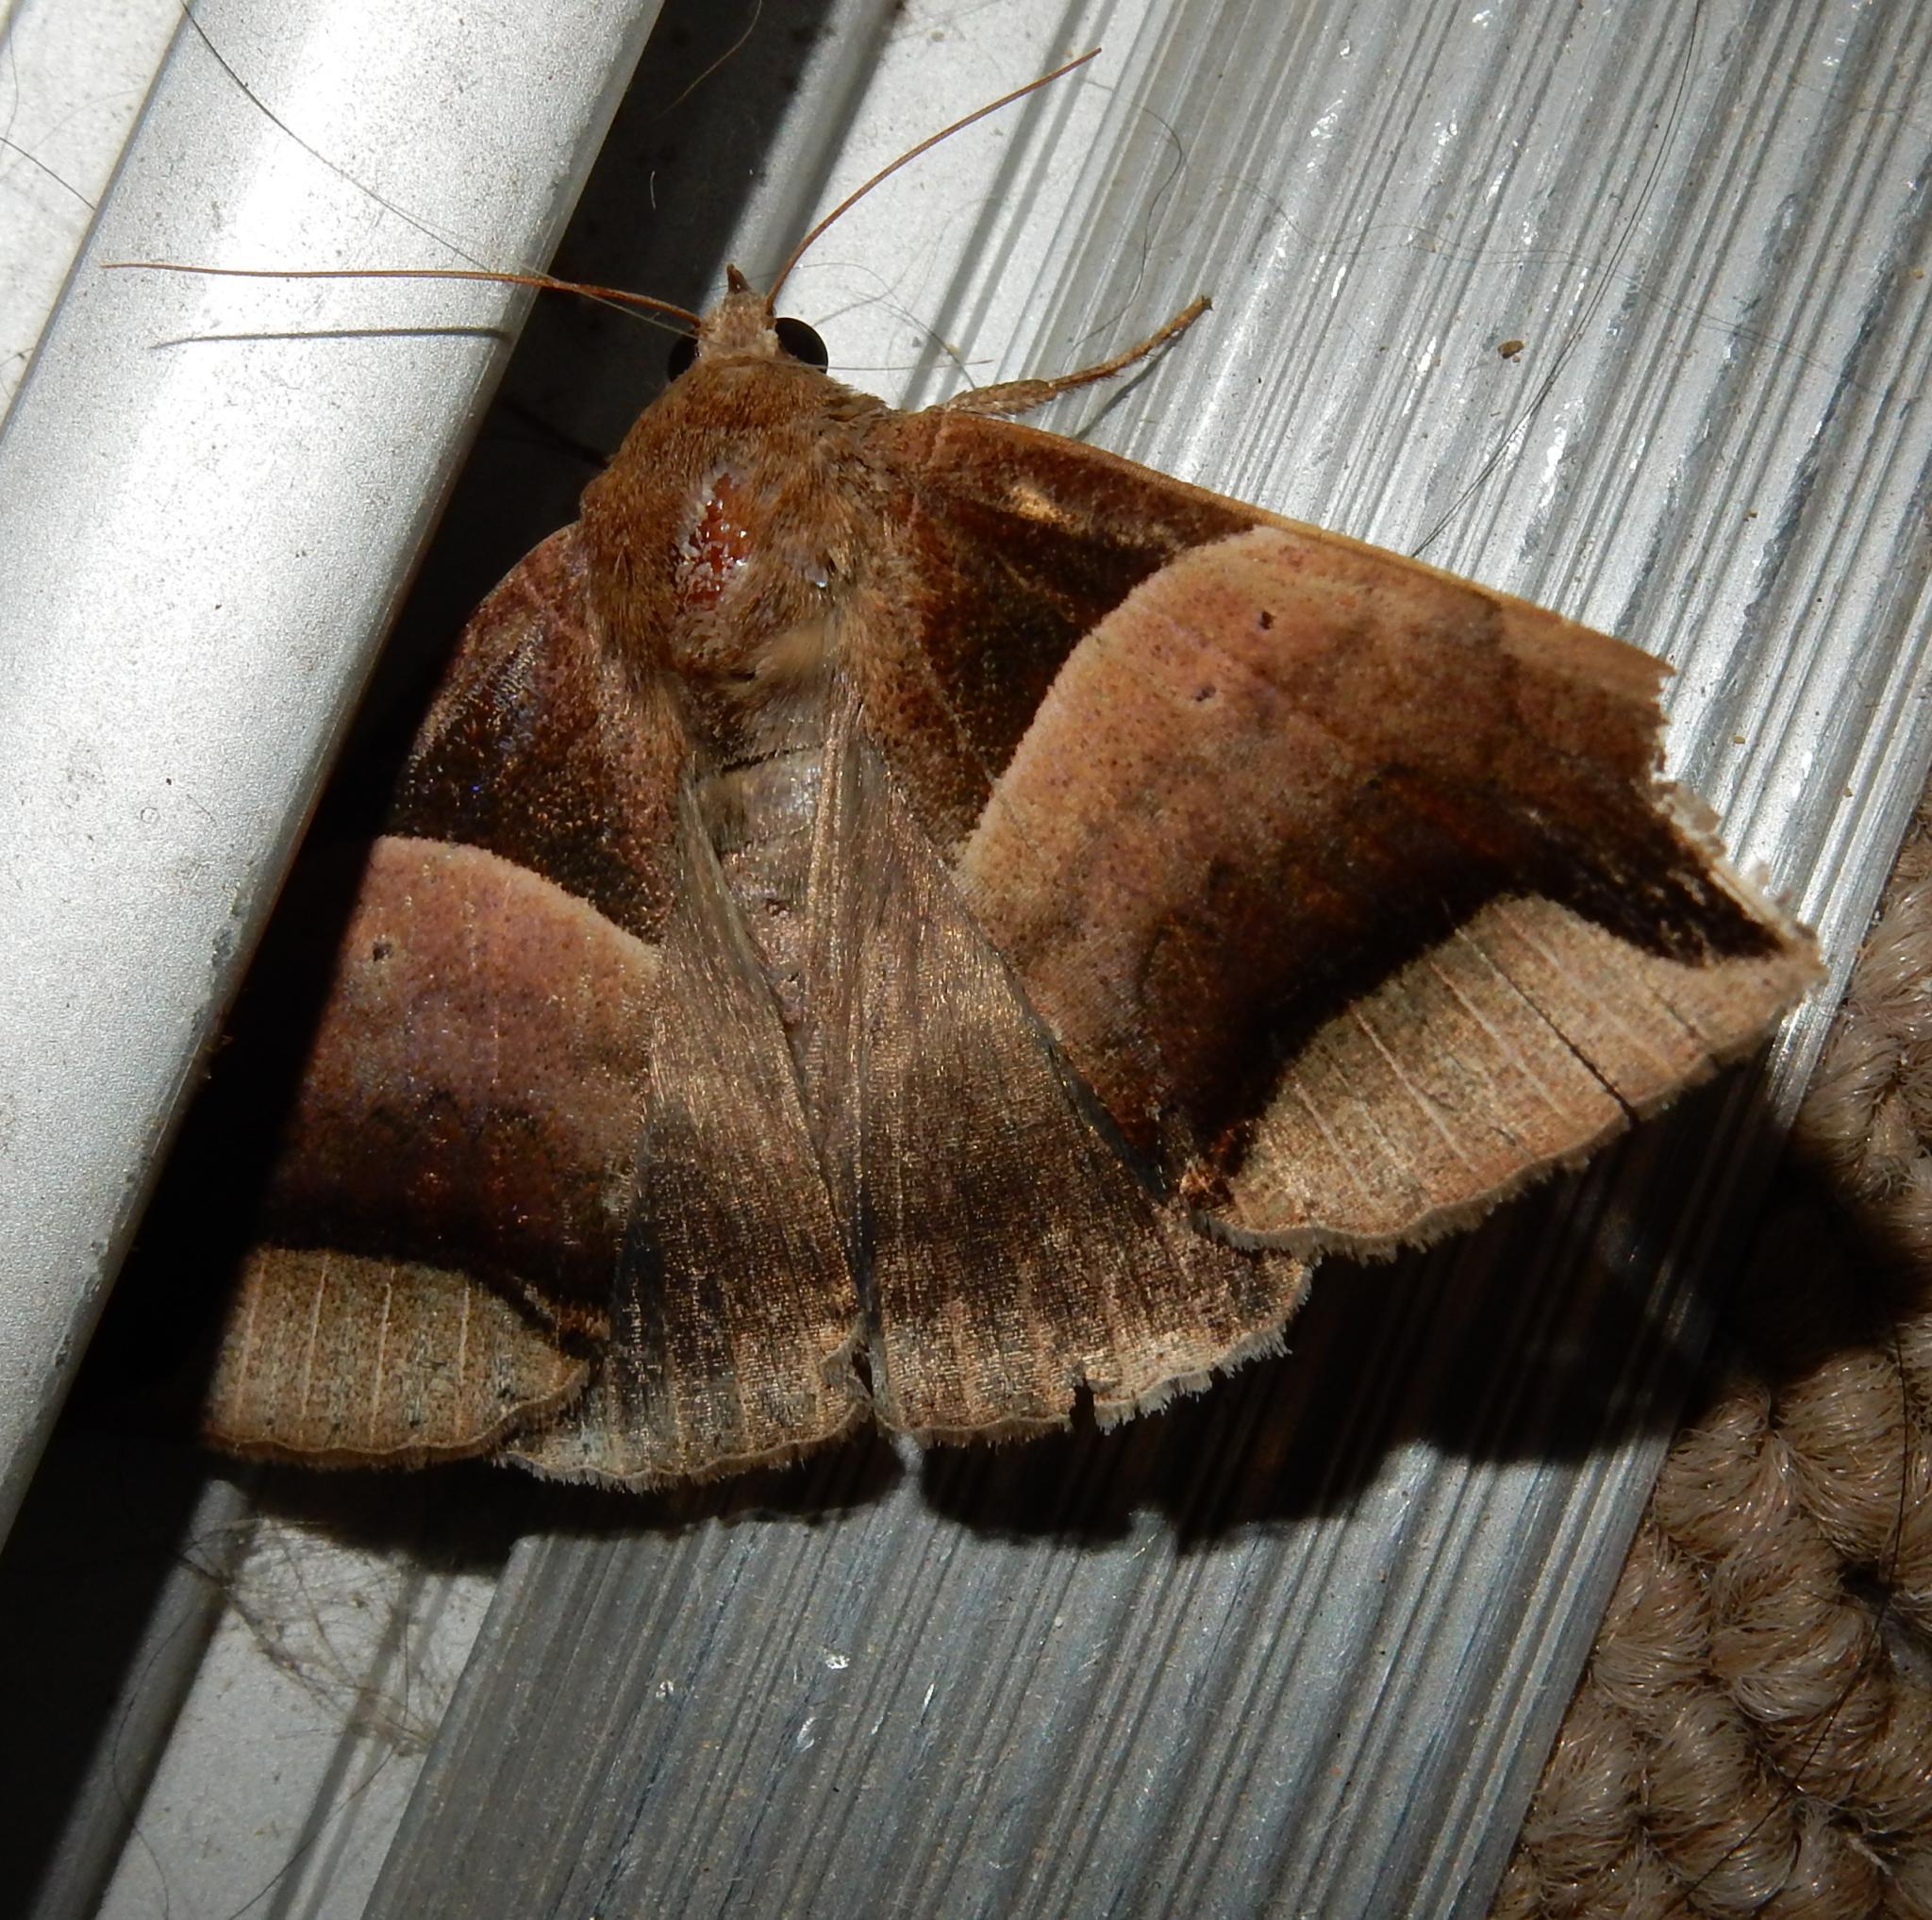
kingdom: Animalia
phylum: Arthropoda
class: Insecta
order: Lepidoptera
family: Erebidae
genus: Achaea
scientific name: Achaea echo
